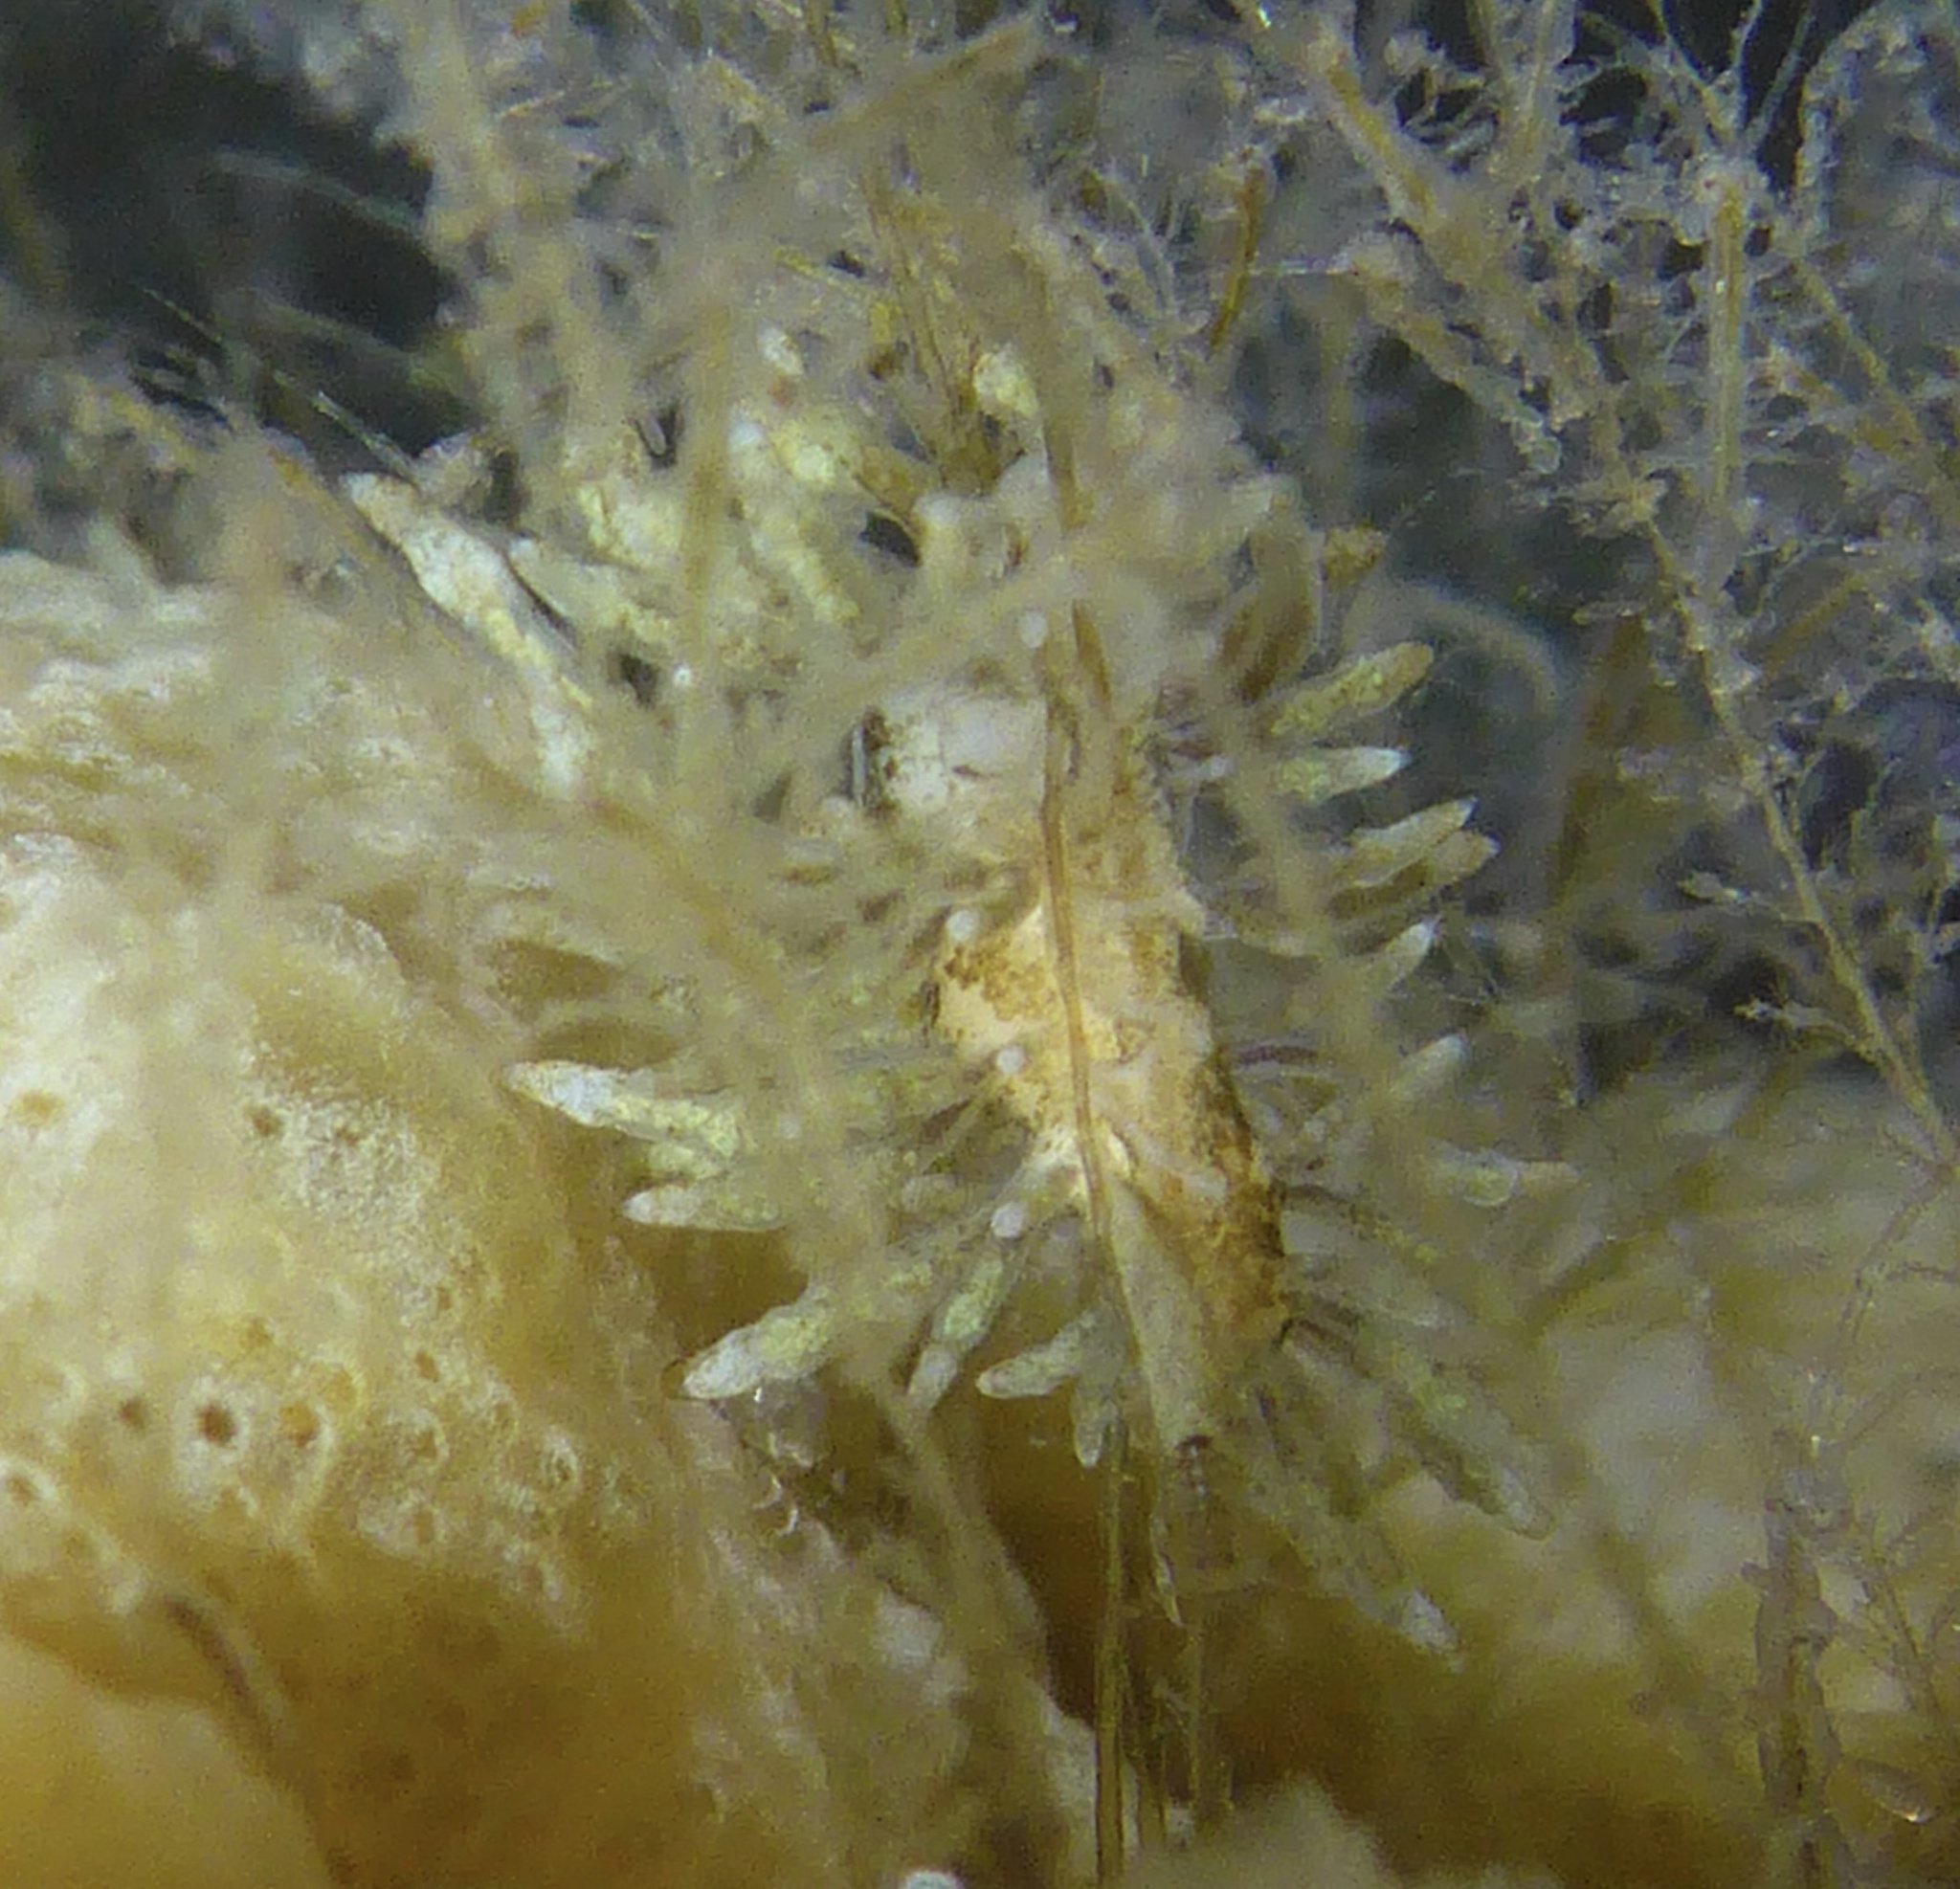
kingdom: Animalia
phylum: Mollusca
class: Gastropoda
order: Nudibranchia
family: Eubranchidae
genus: Eubranchus
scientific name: Eubranchus rustyus
